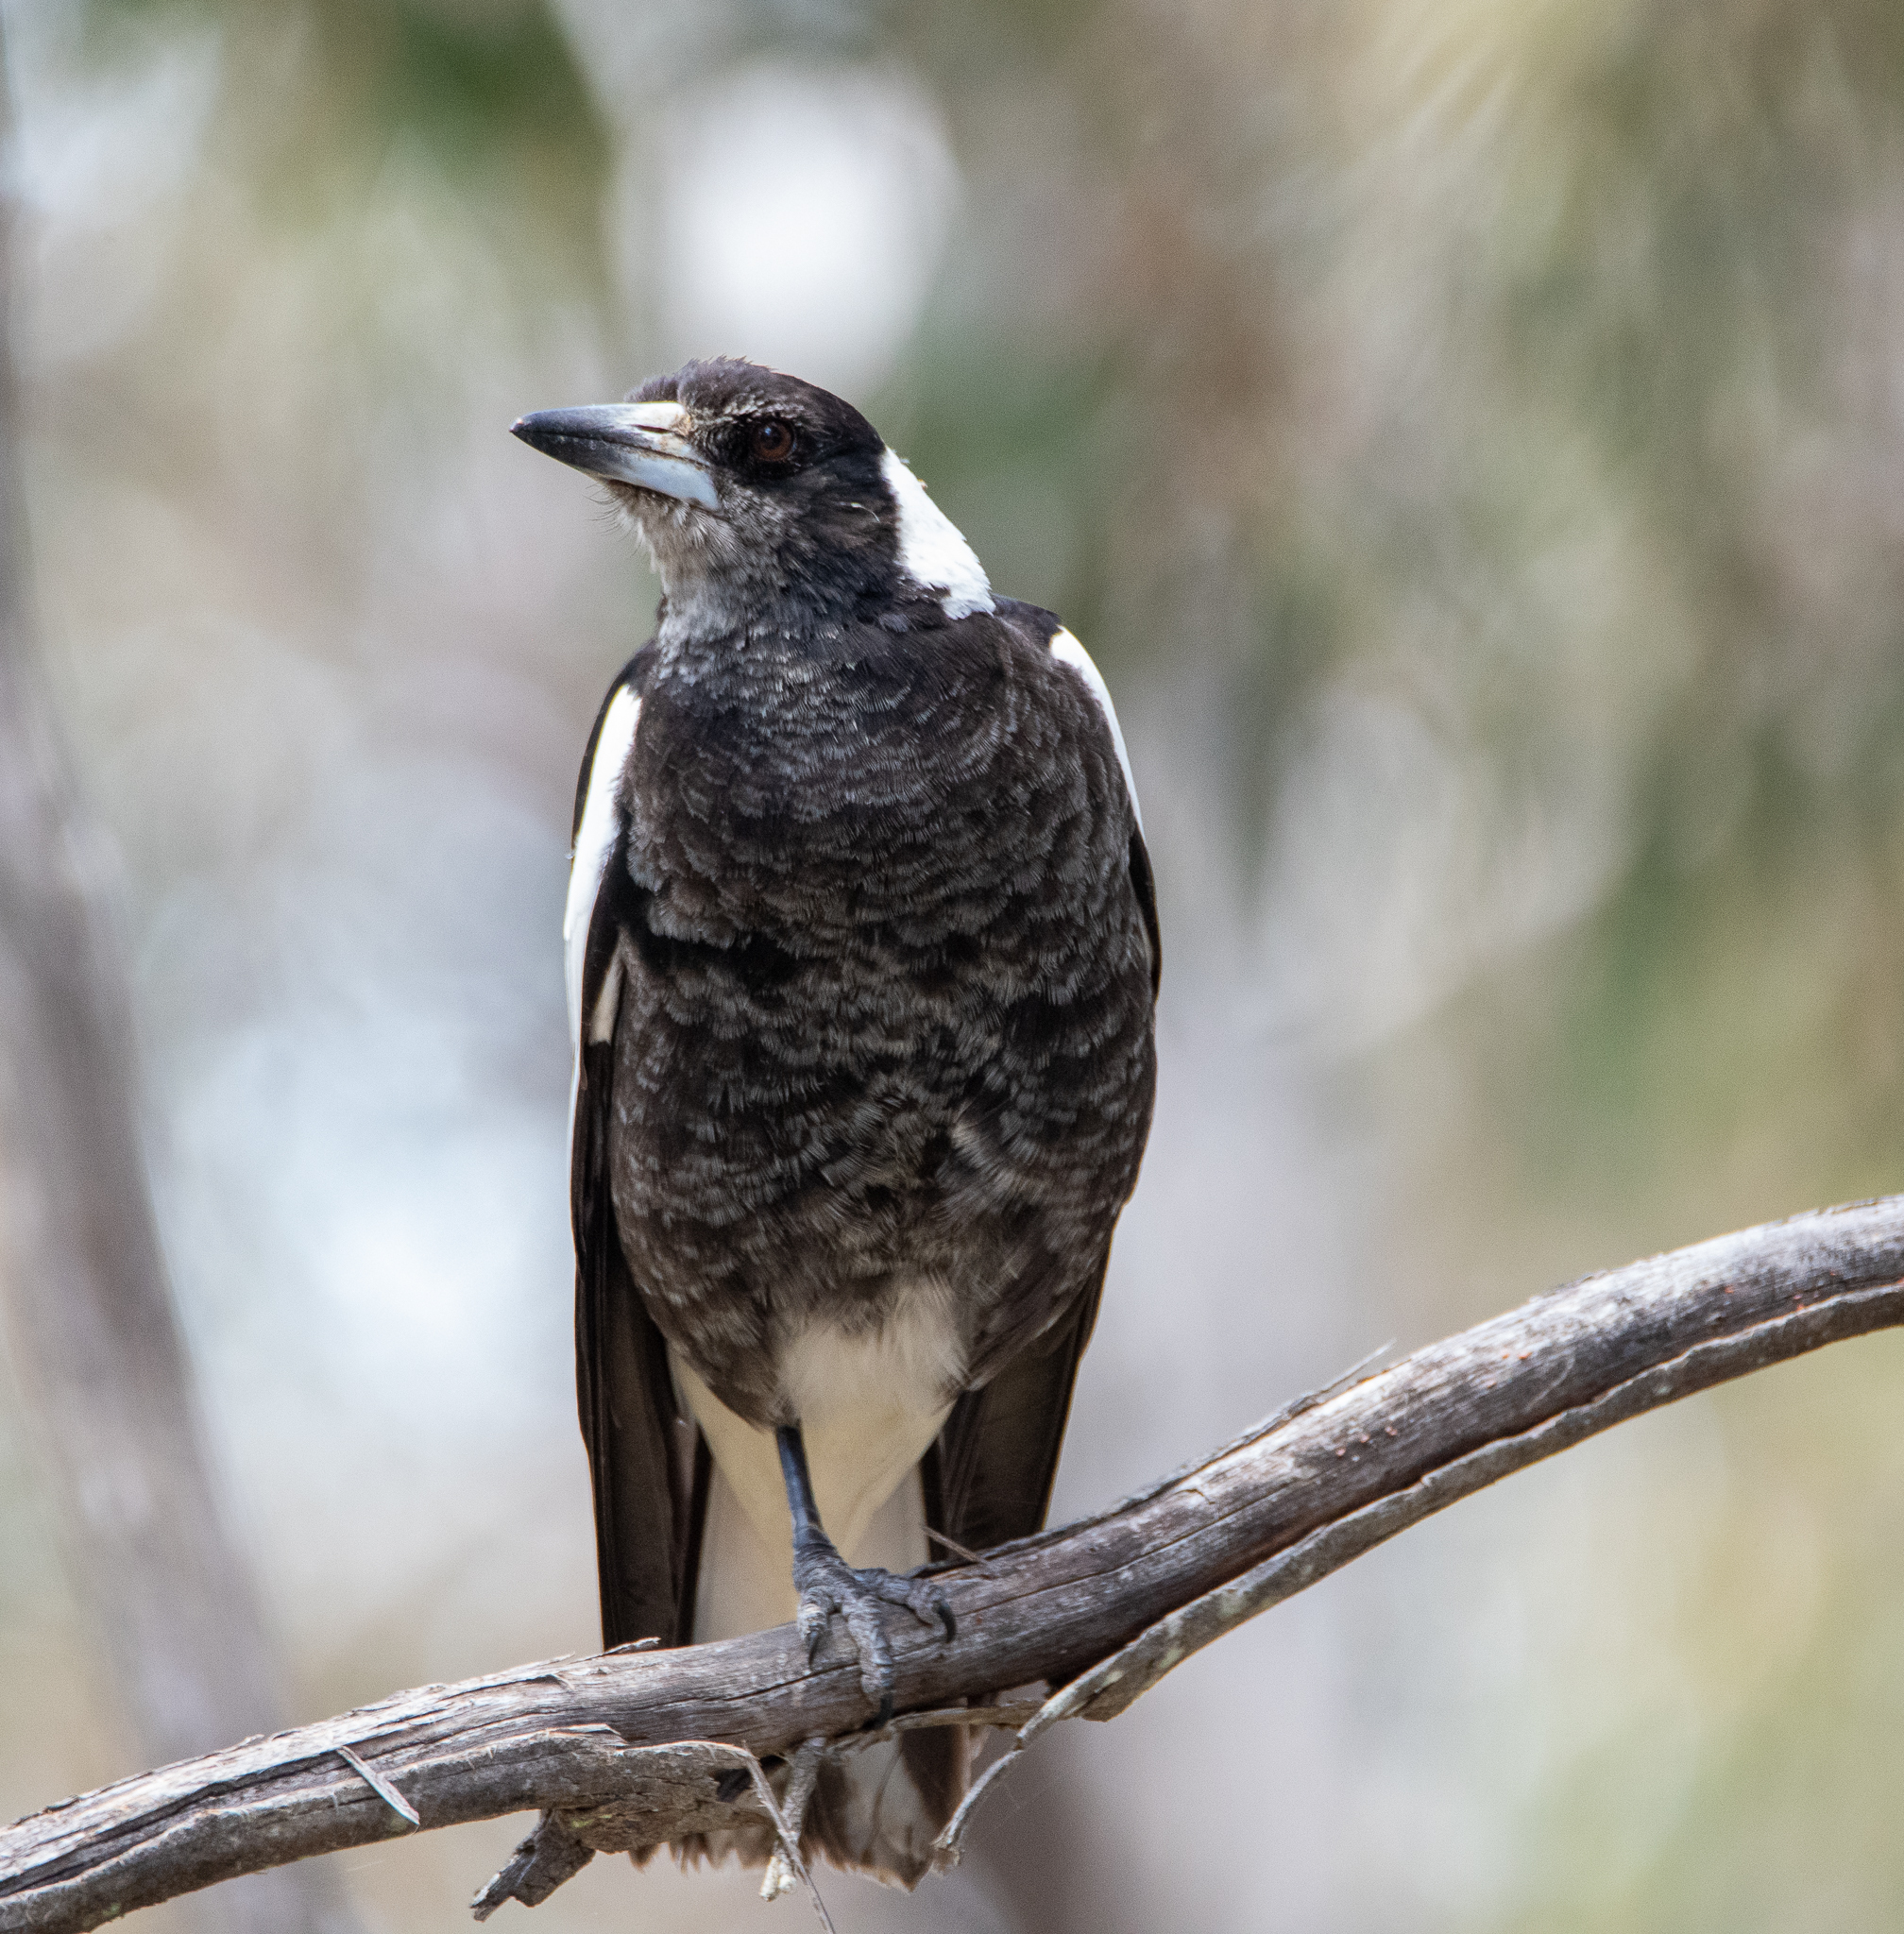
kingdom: Animalia
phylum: Chordata
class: Aves
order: Passeriformes
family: Cracticidae
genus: Gymnorhina
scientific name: Gymnorhina tibicen
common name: Australian magpie
